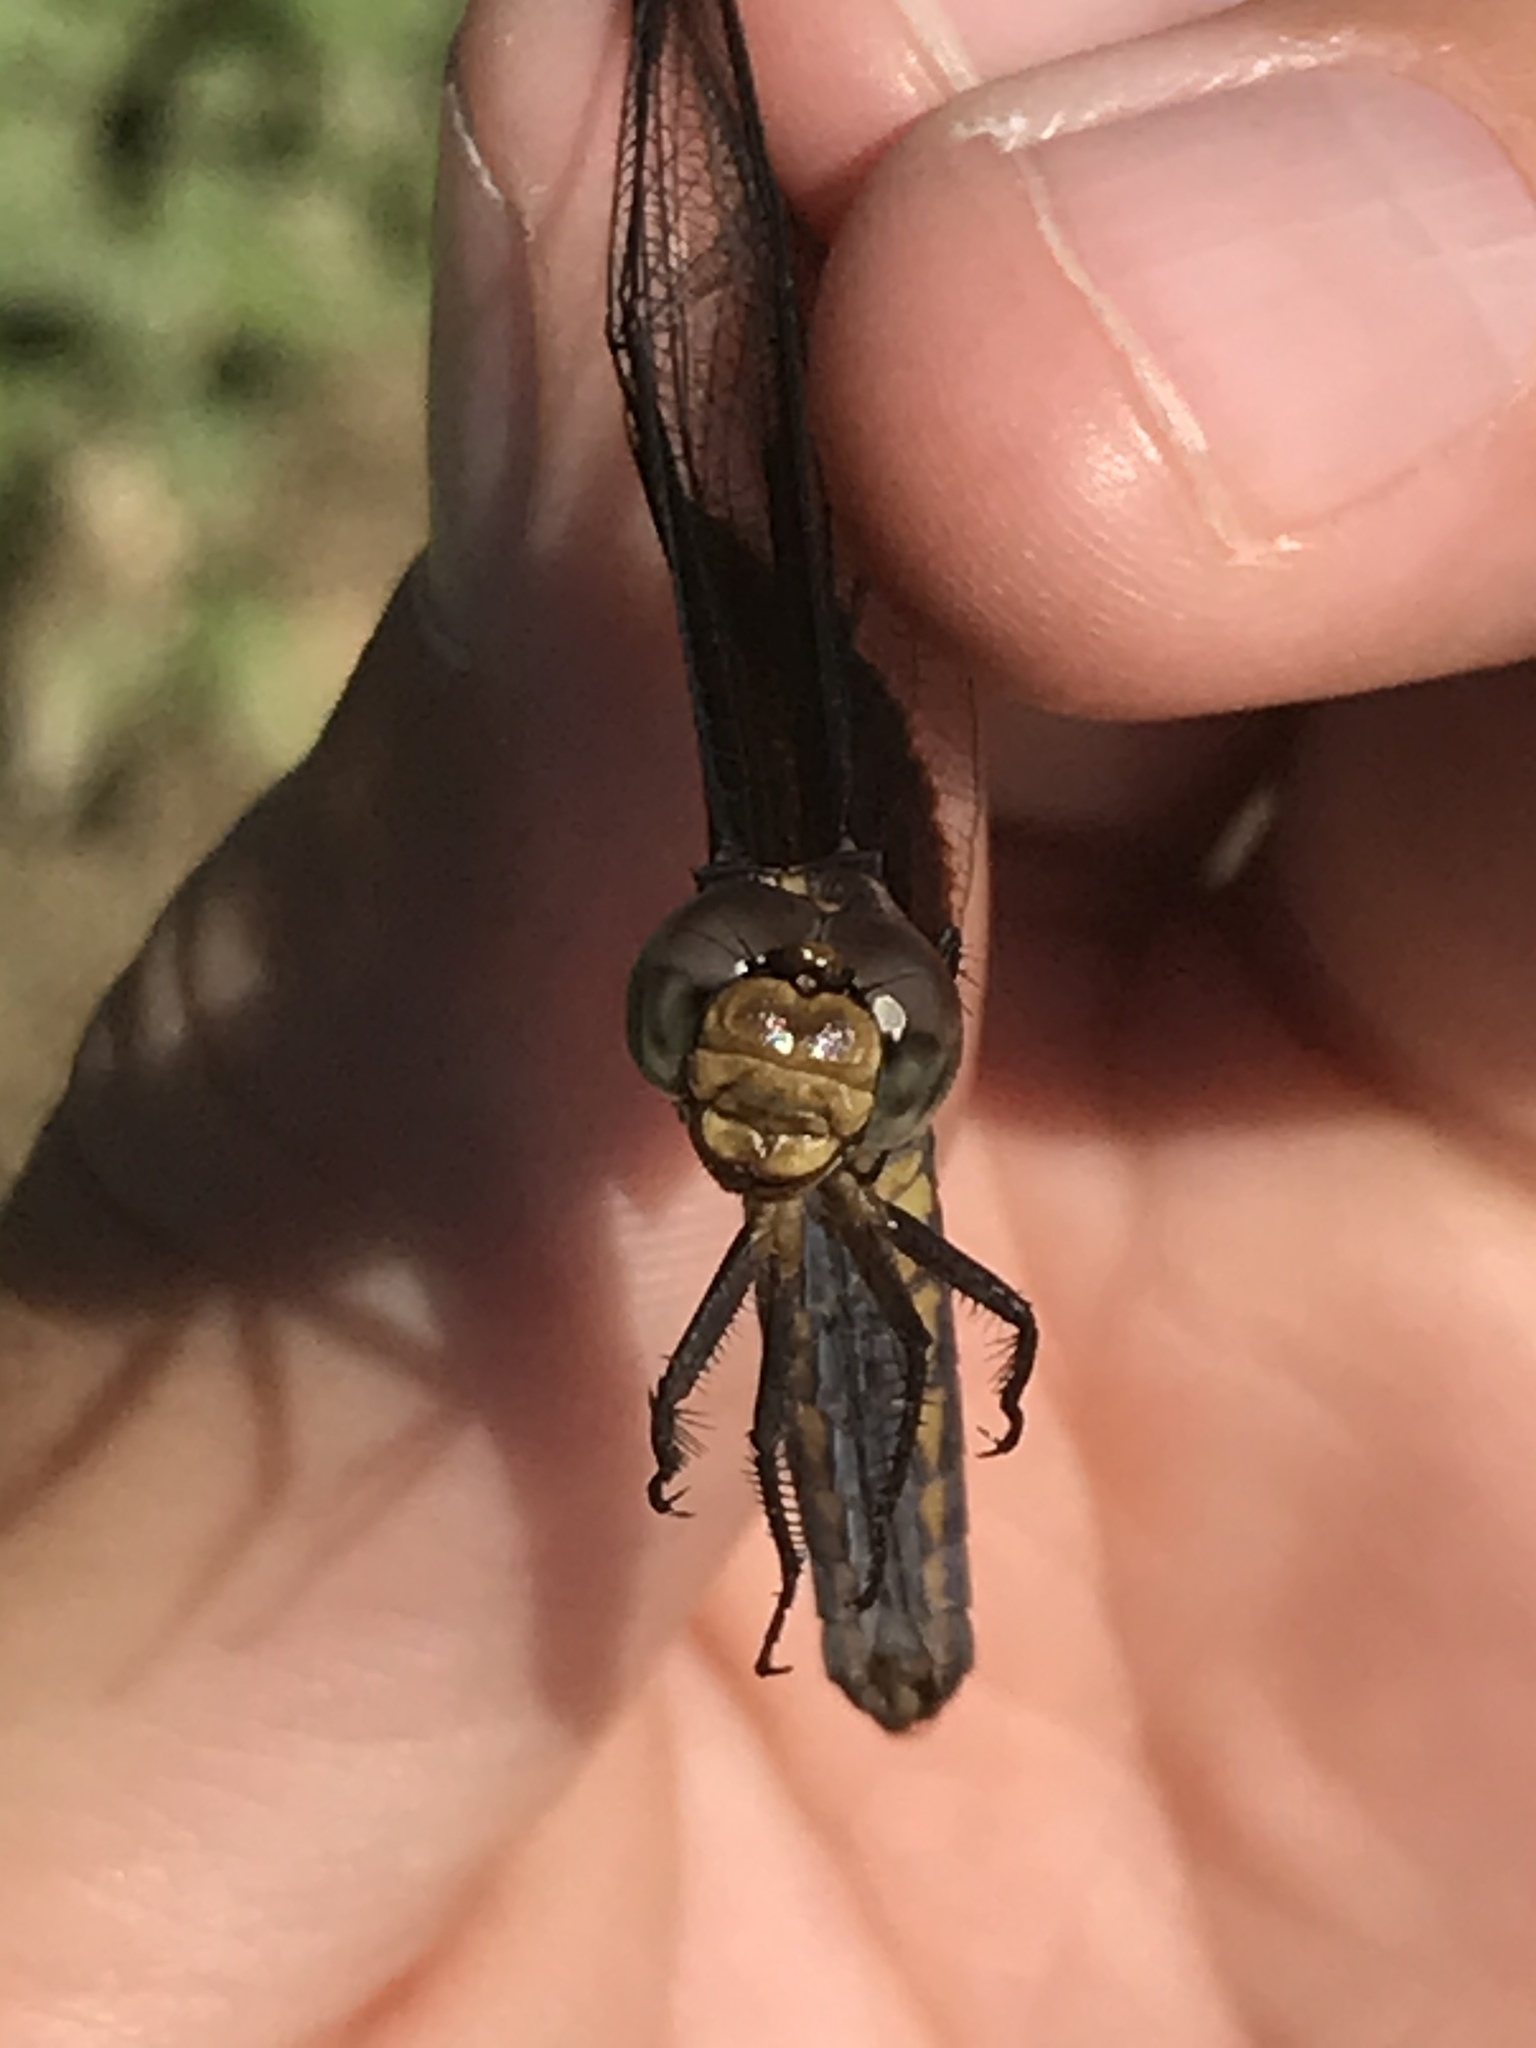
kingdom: Animalia
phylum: Arthropoda
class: Insecta
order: Odonata
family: Libellulidae
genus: Libellula
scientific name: Libellula luctuosa
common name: Widow skimmer
